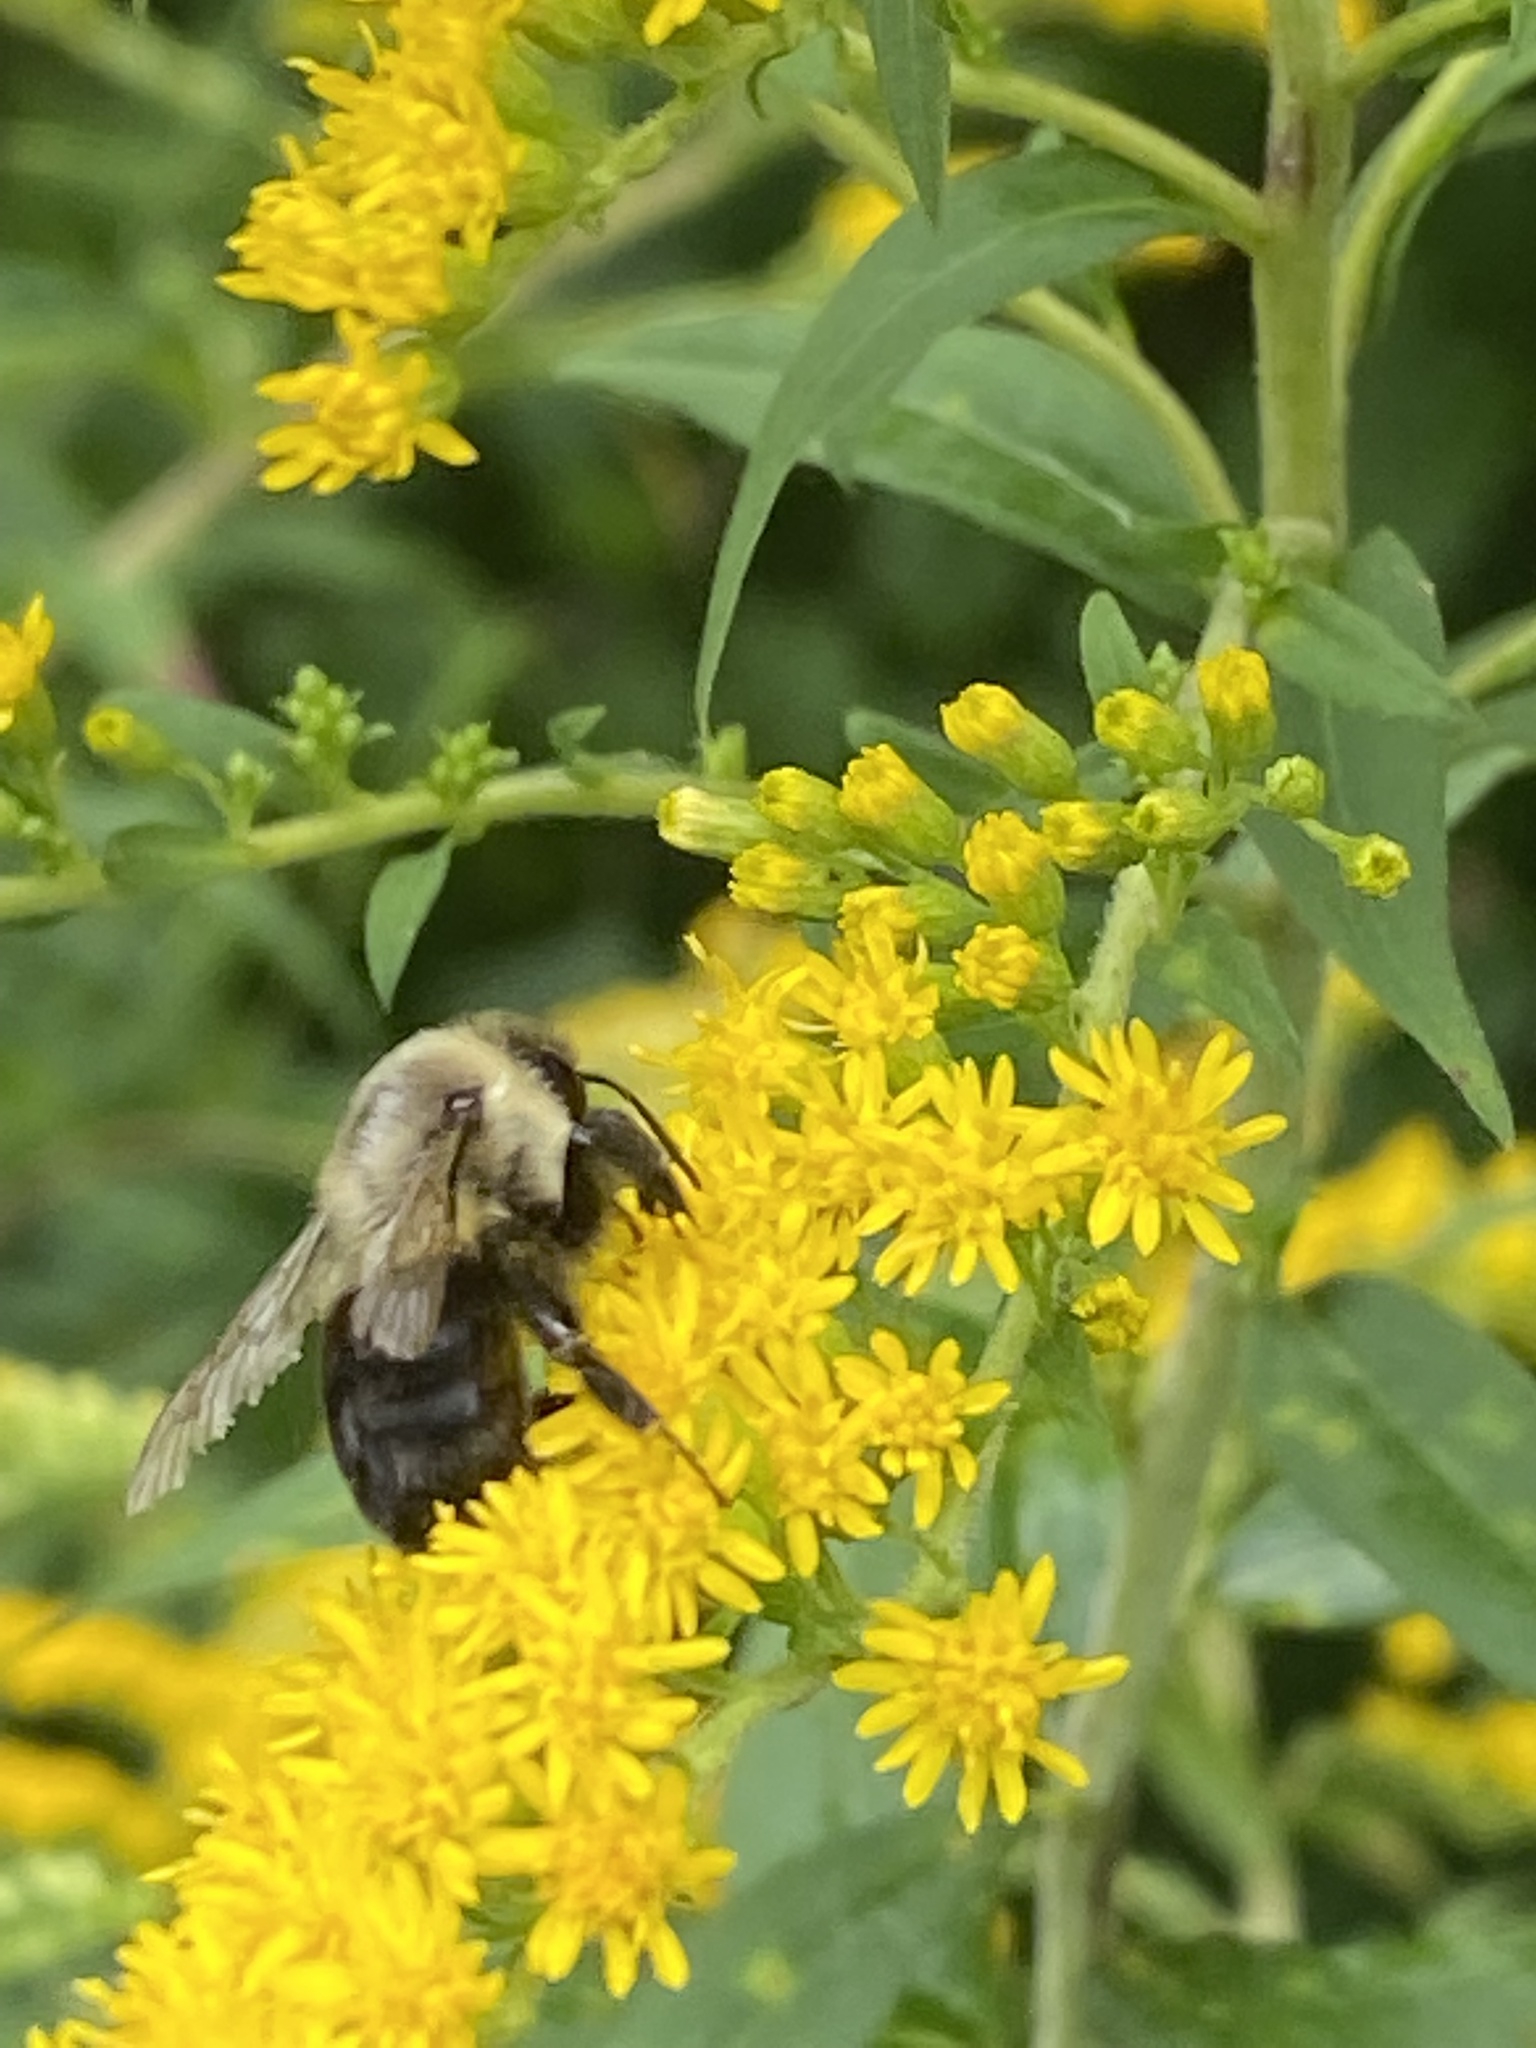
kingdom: Animalia
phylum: Arthropoda
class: Insecta
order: Hymenoptera
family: Apidae
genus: Bombus
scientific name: Bombus impatiens
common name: Common eastern bumble bee
